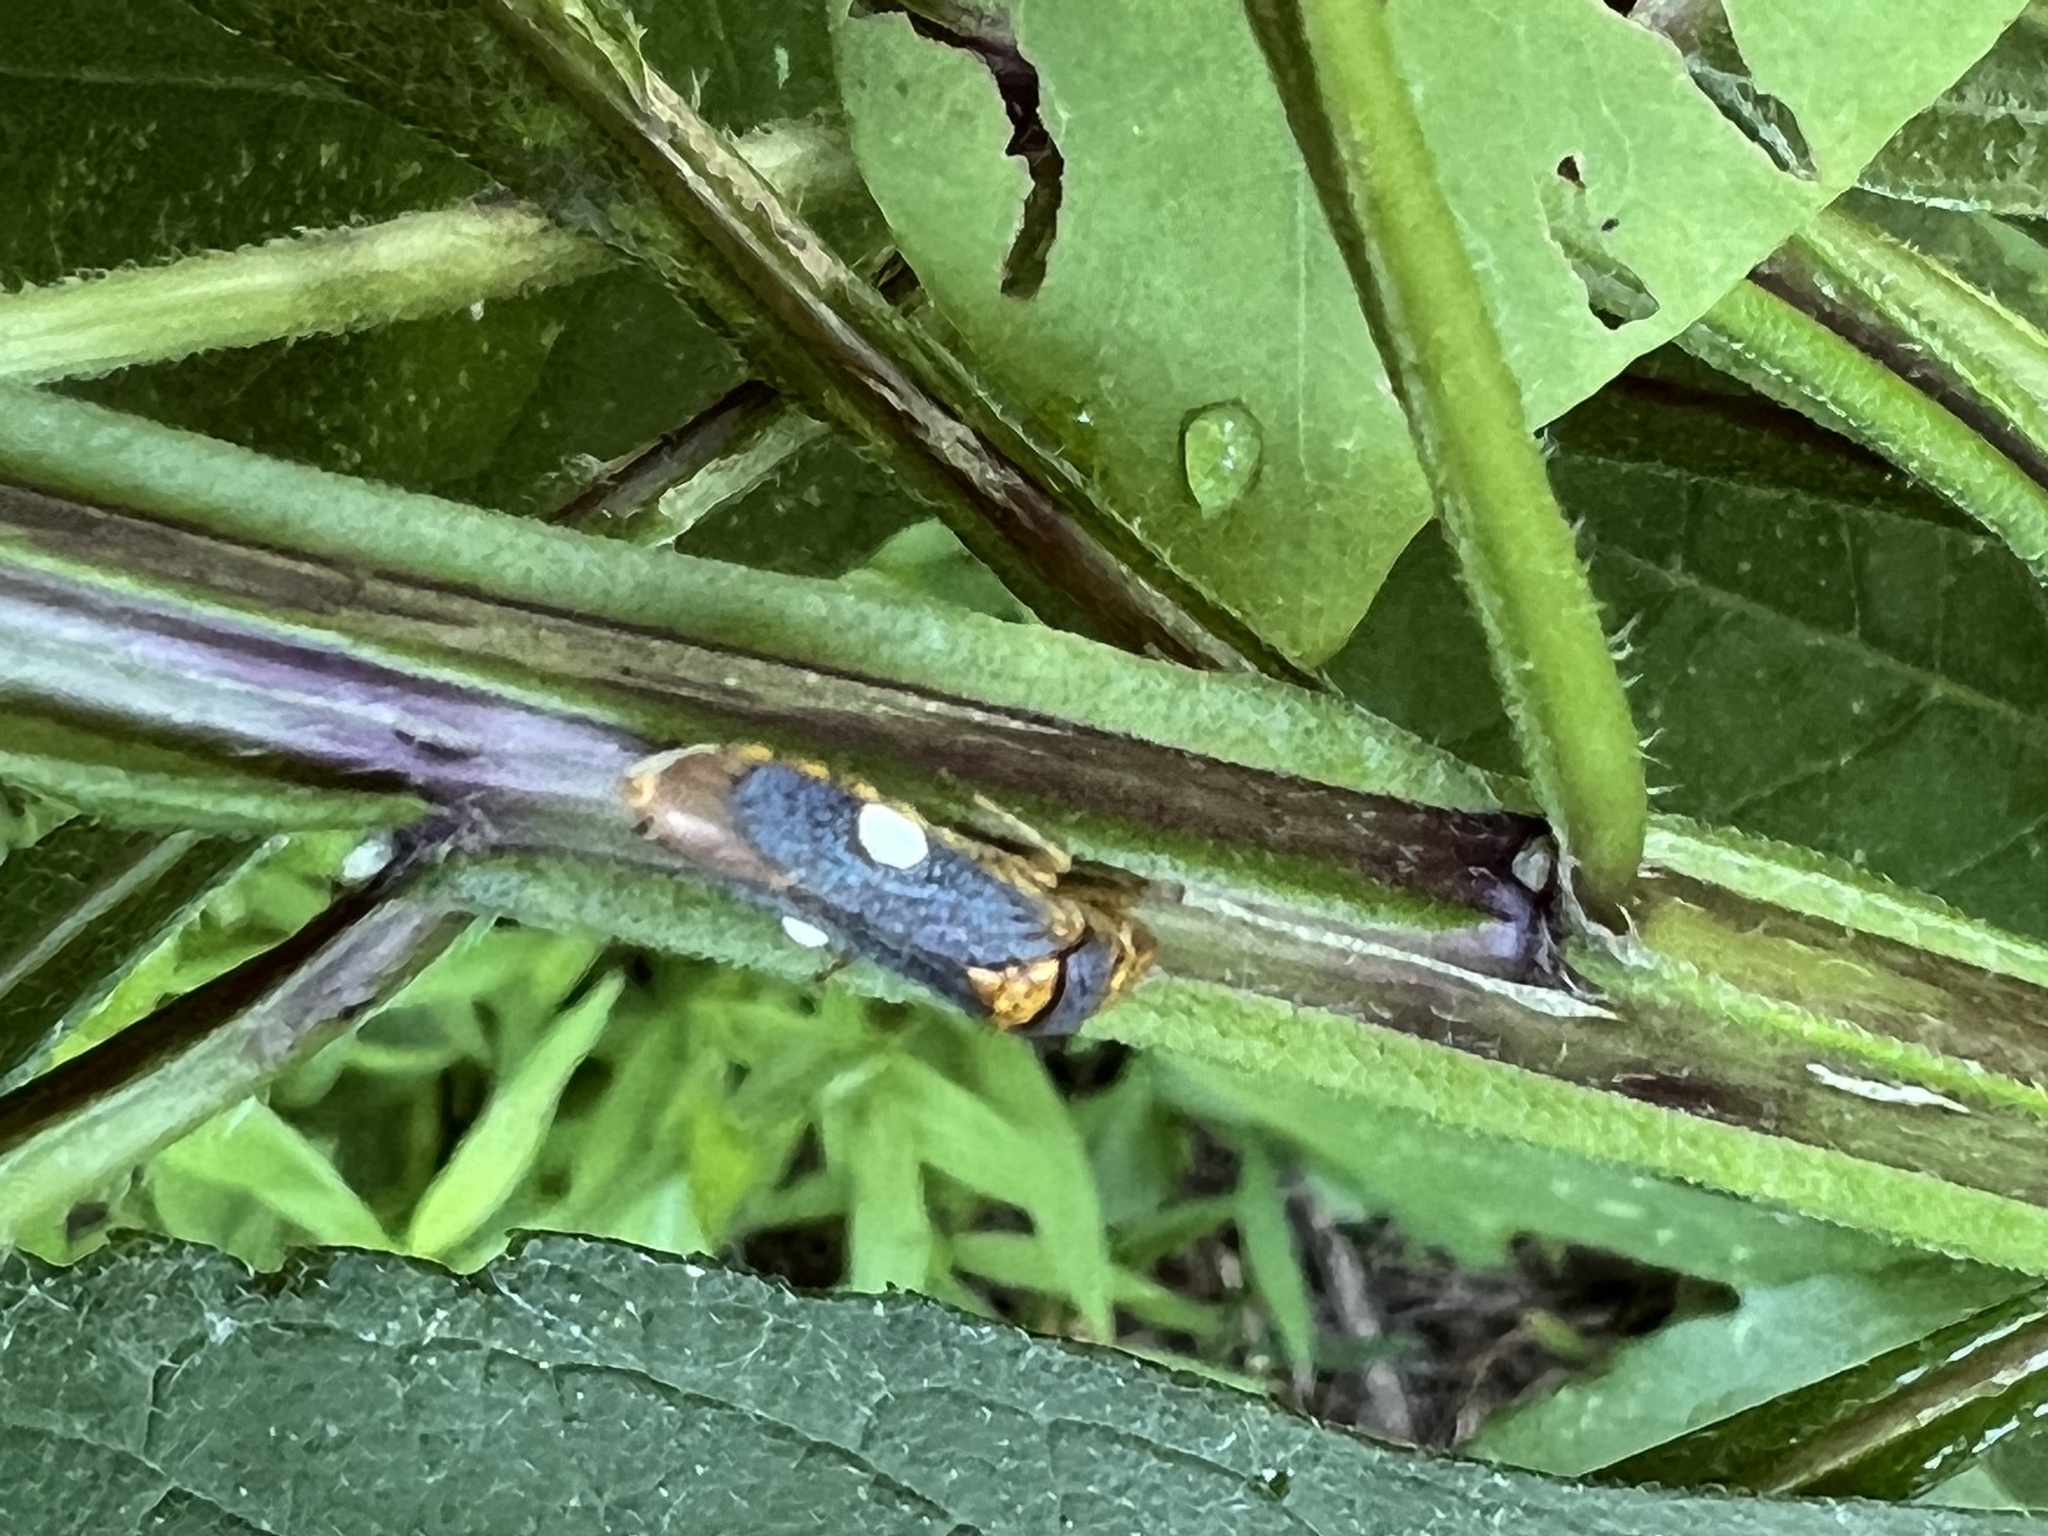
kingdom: Animalia
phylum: Arthropoda
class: Insecta
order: Hemiptera
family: Cicadellidae
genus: Oncometopia
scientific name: Oncometopia orbona
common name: Broad-headed sharpshooter
